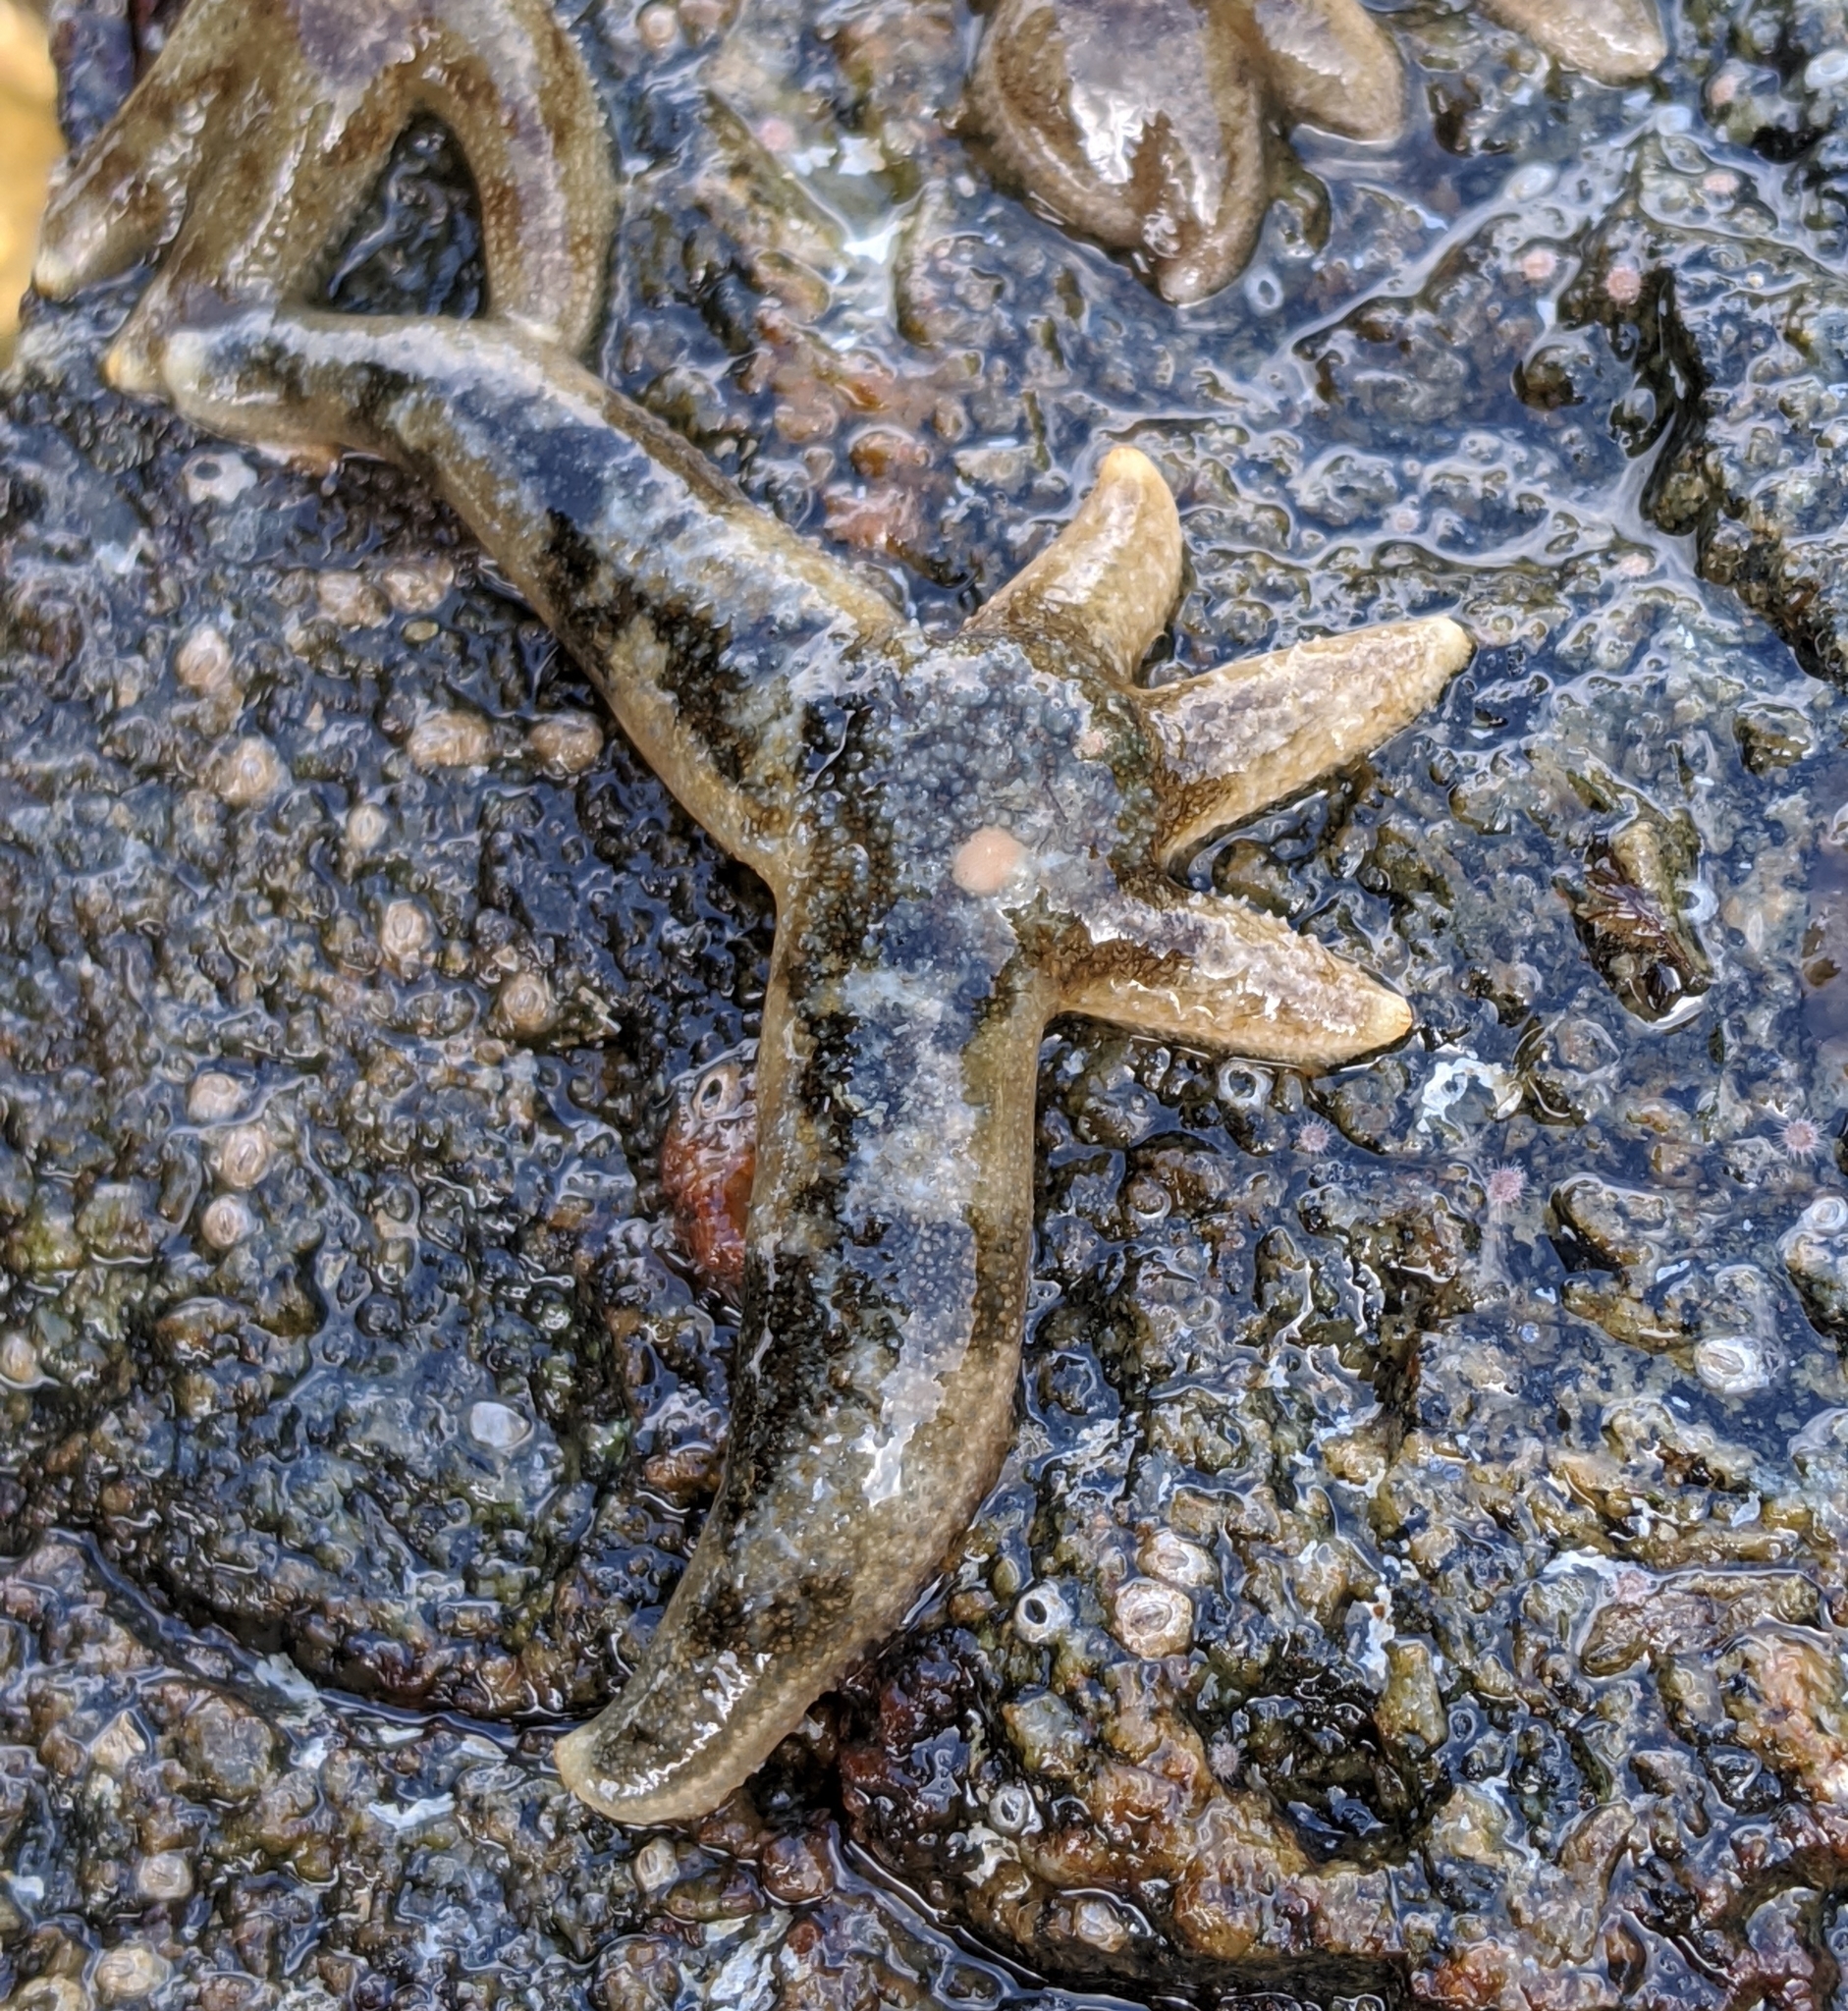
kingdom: Animalia
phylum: Echinodermata
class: Asteroidea
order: Forcipulatida
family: Asteriidae
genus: Evasterias
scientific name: Evasterias troschelii
